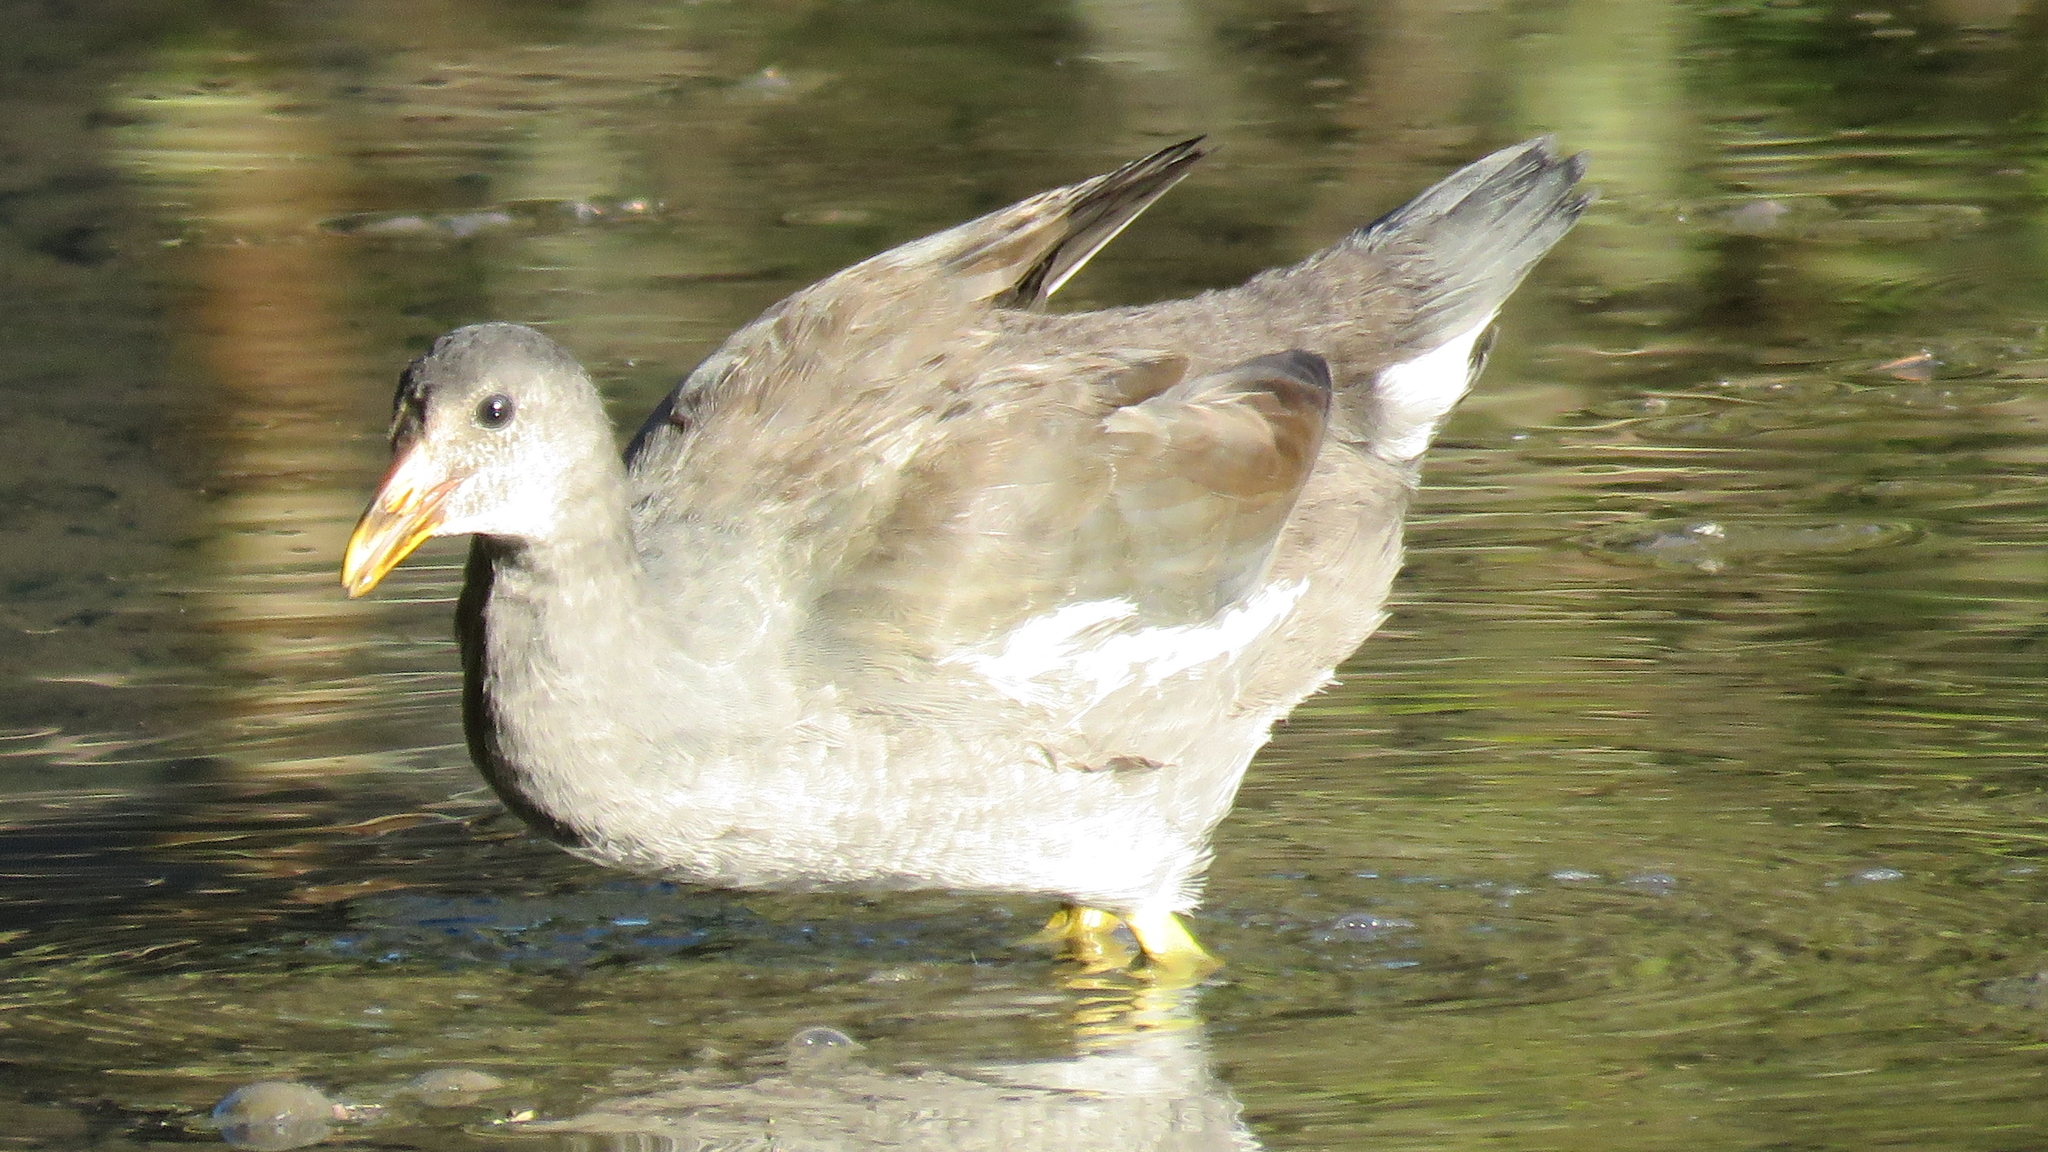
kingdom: Animalia
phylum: Chordata
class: Aves
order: Gruiformes
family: Rallidae
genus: Gallinula
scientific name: Gallinula chloropus
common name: Common moorhen
